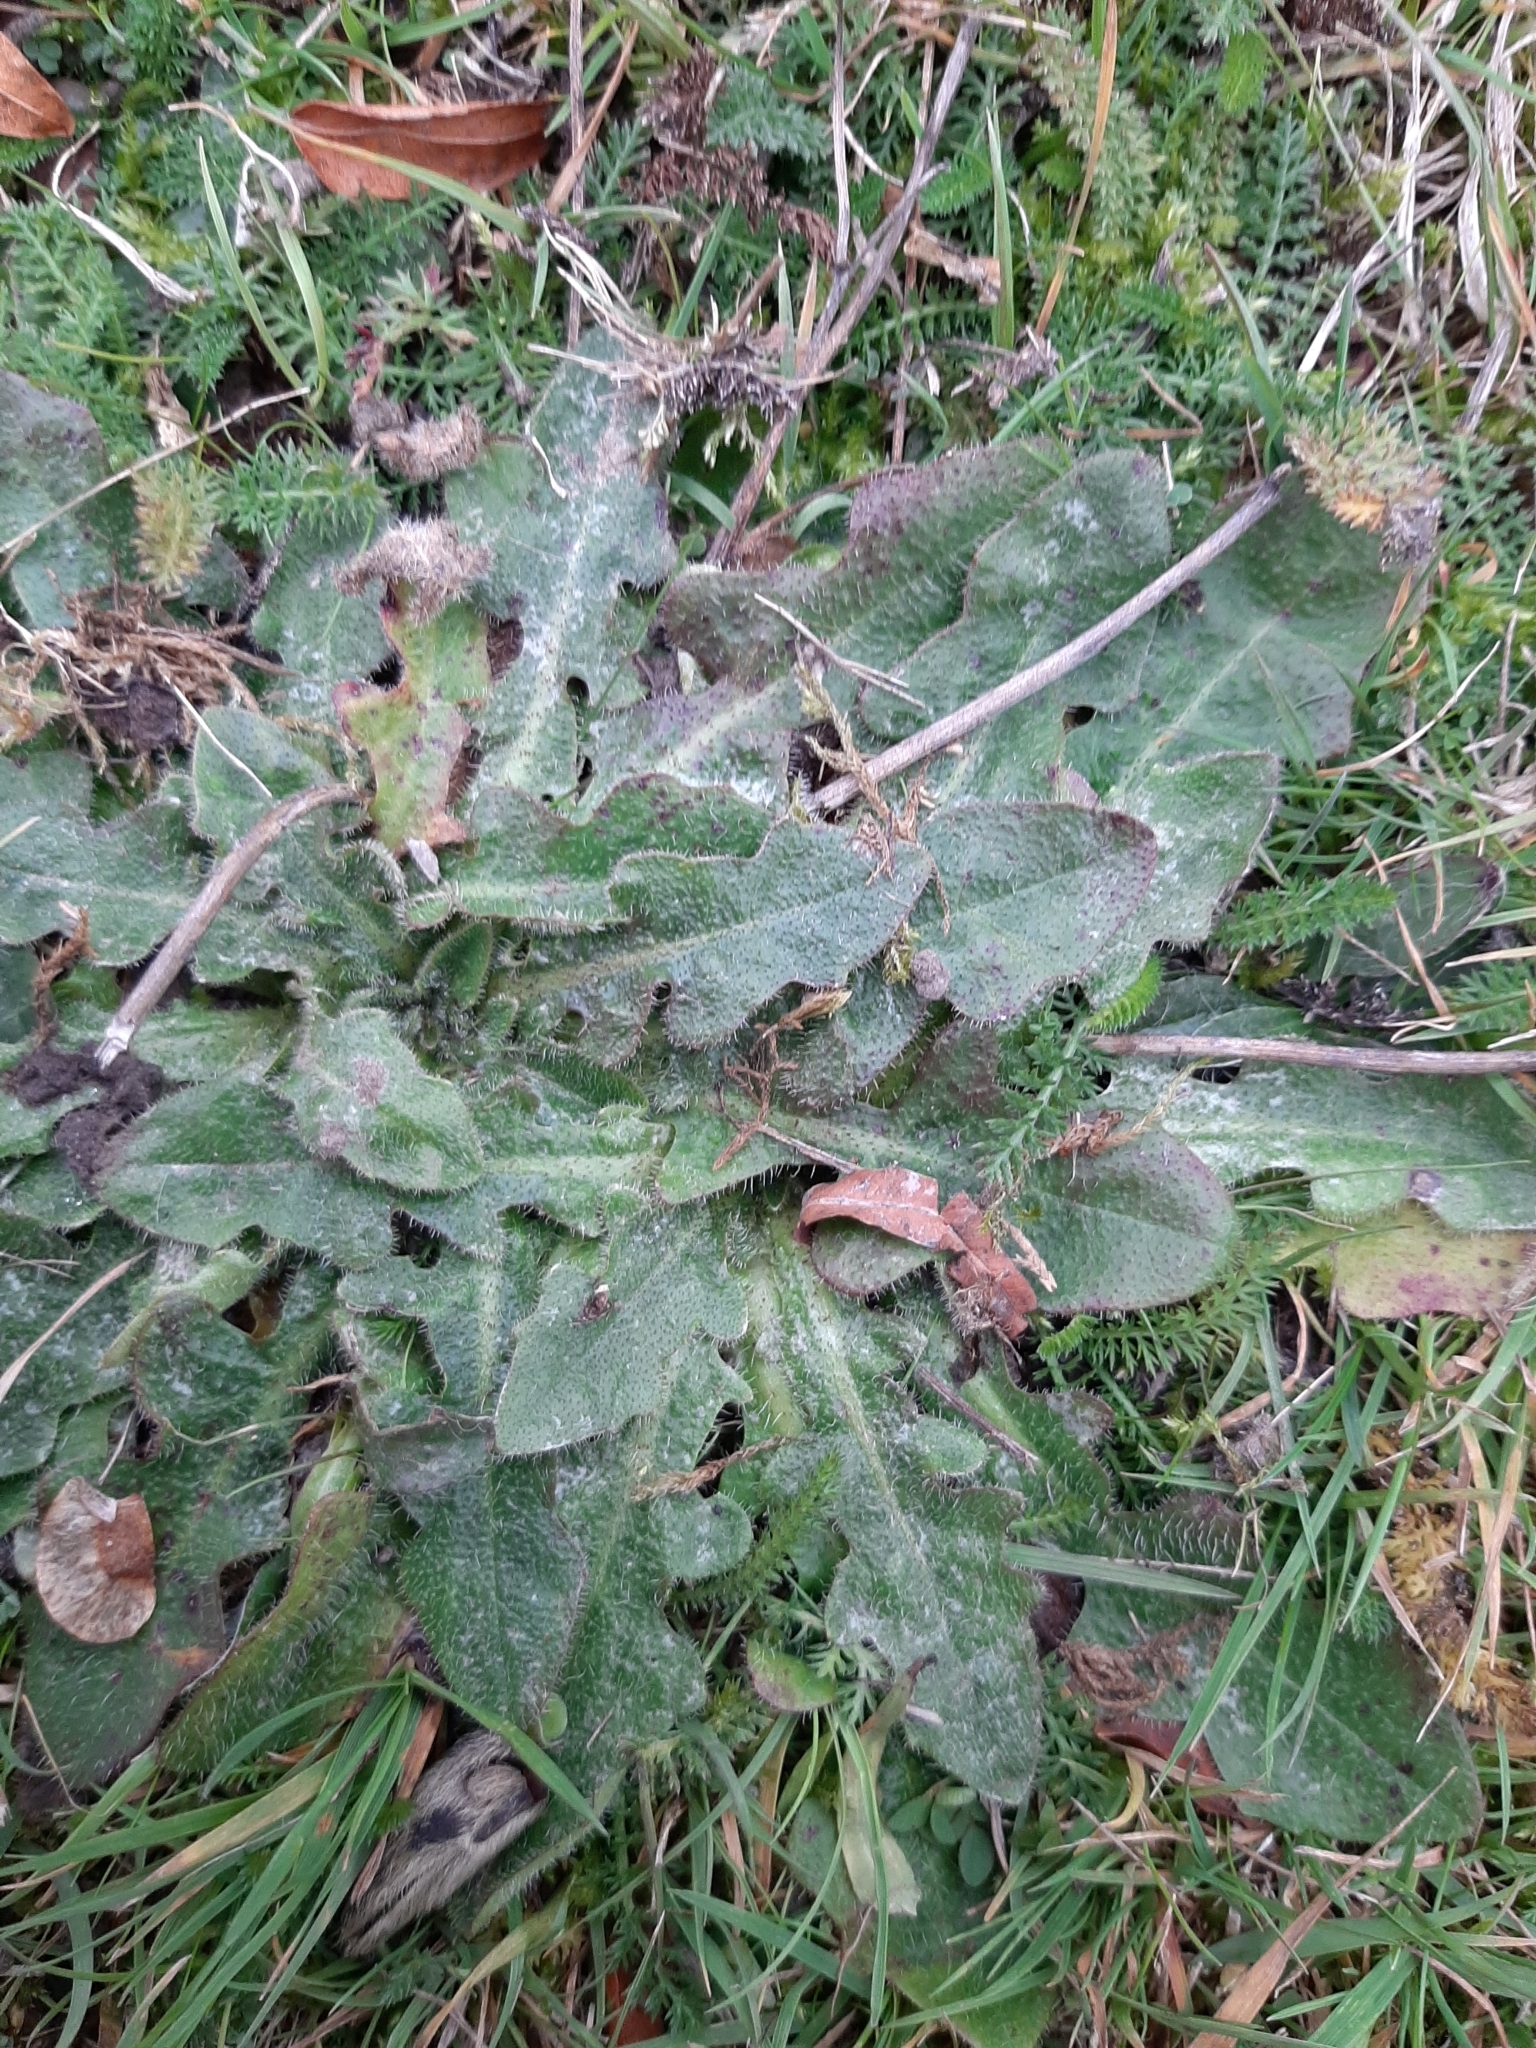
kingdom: Plantae
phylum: Tracheophyta
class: Magnoliopsida
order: Asterales
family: Asteraceae
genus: Hypochaeris
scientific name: Hypochaeris radicata
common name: Flatweed
